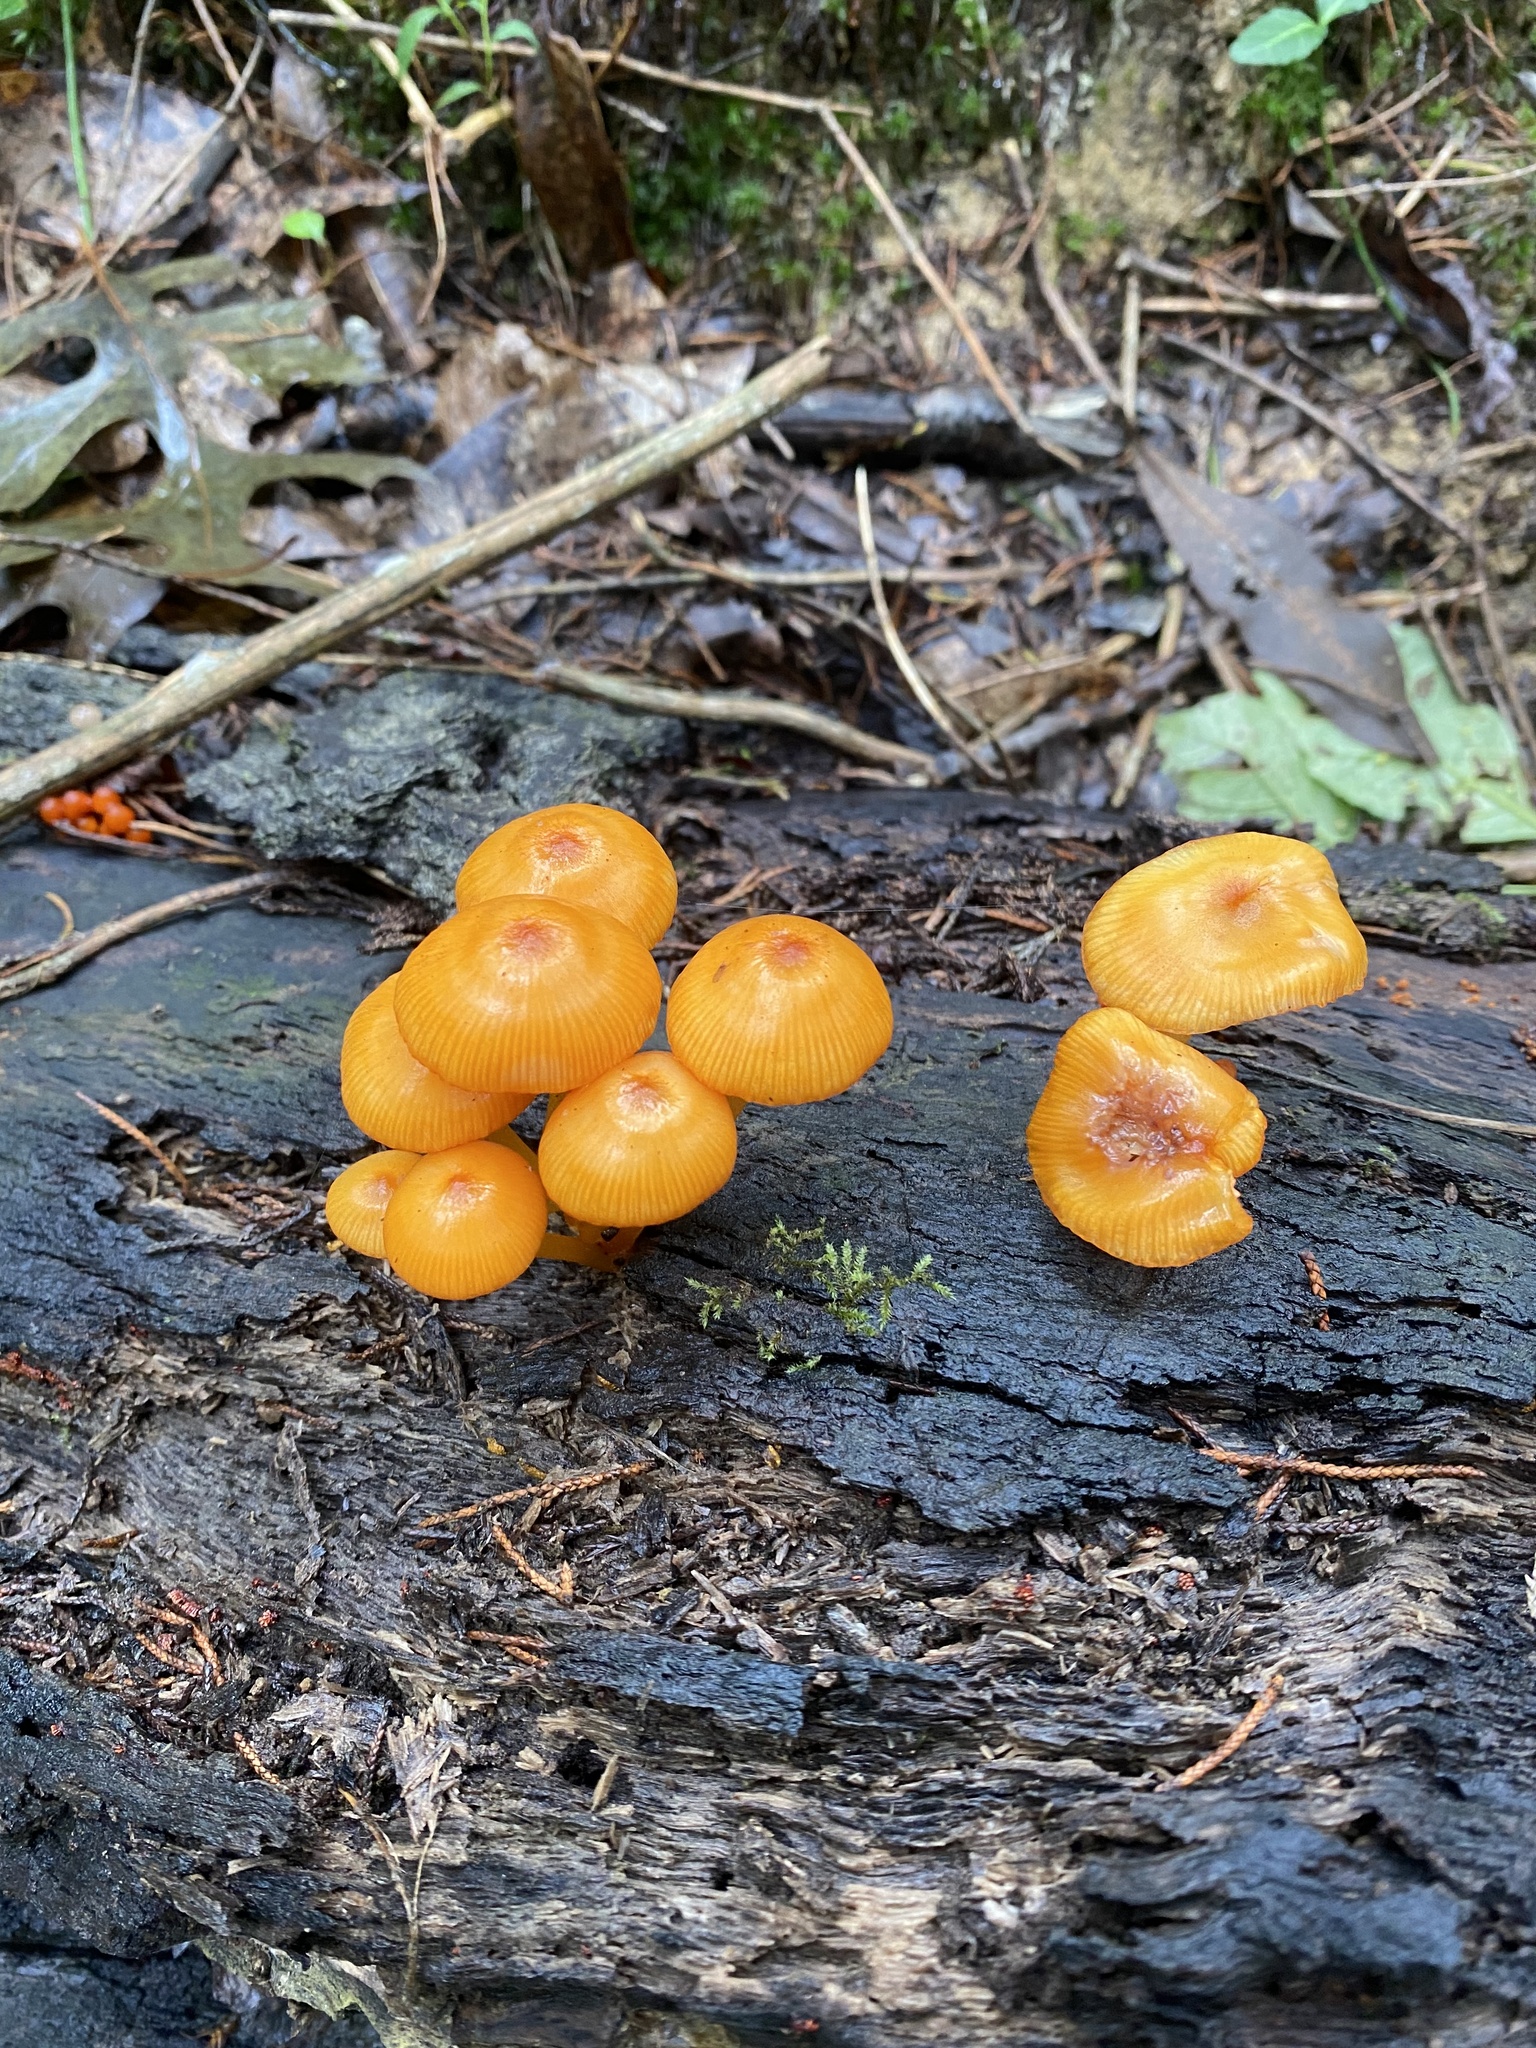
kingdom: Fungi
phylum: Basidiomycota
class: Agaricomycetes
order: Agaricales
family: Mycenaceae
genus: Mycena
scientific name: Mycena leaiana
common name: Orange mycena
